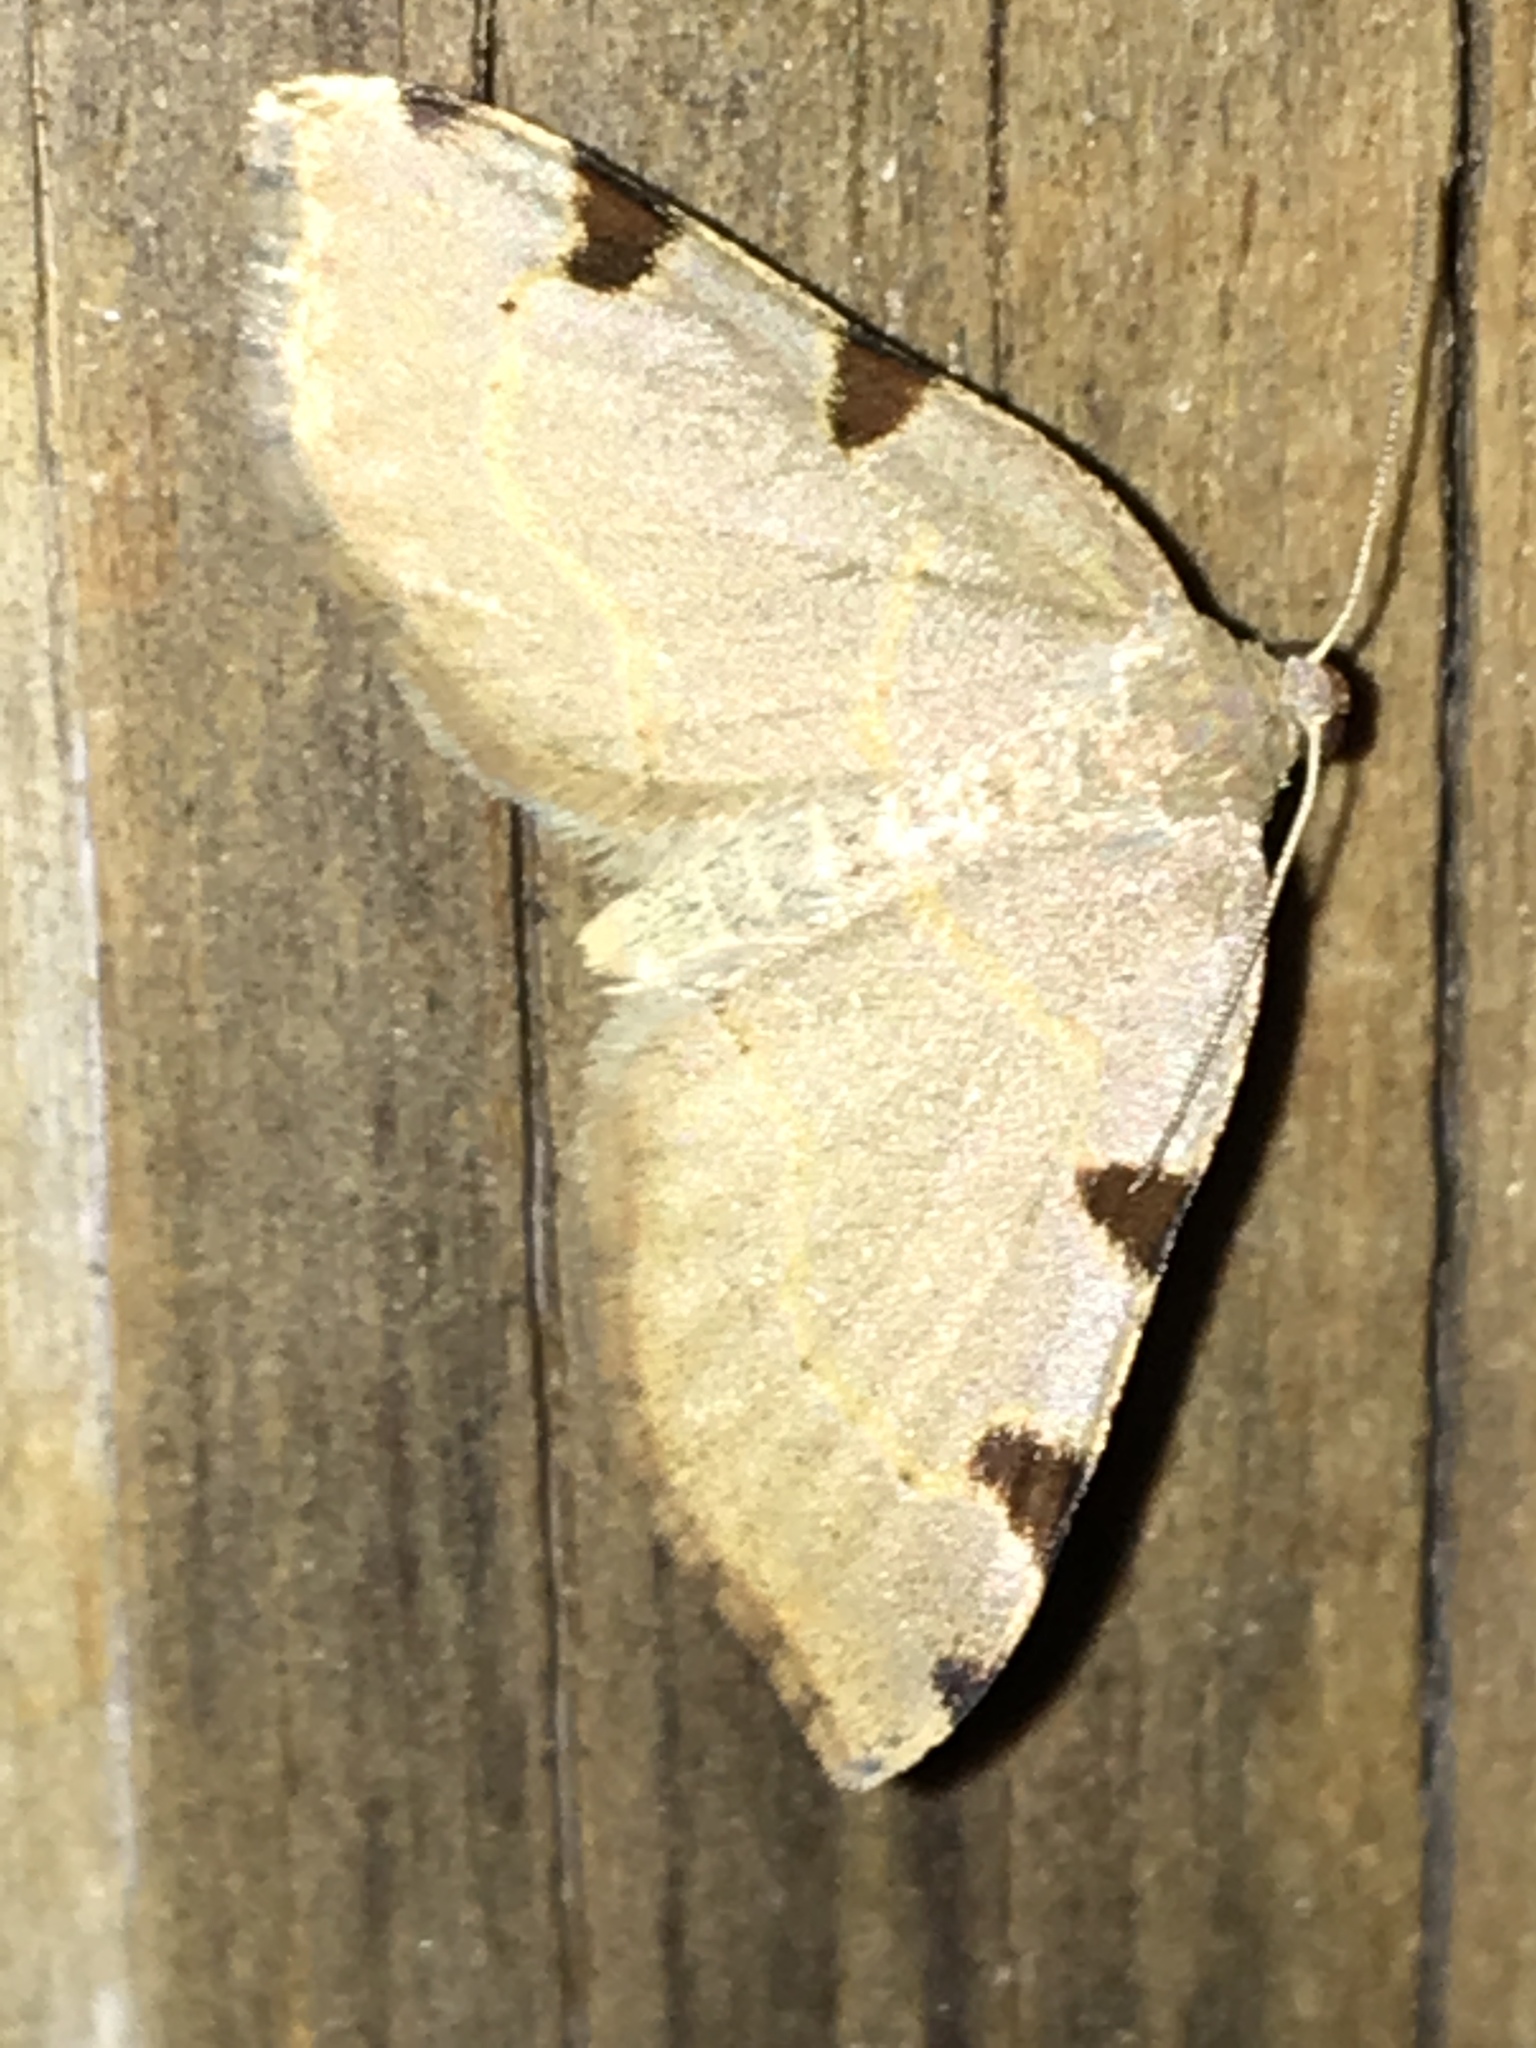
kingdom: Animalia
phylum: Arthropoda
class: Insecta
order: Lepidoptera
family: Geometridae
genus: Heterophleps
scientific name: Heterophleps triguttaria
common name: Three-spotted fillip
